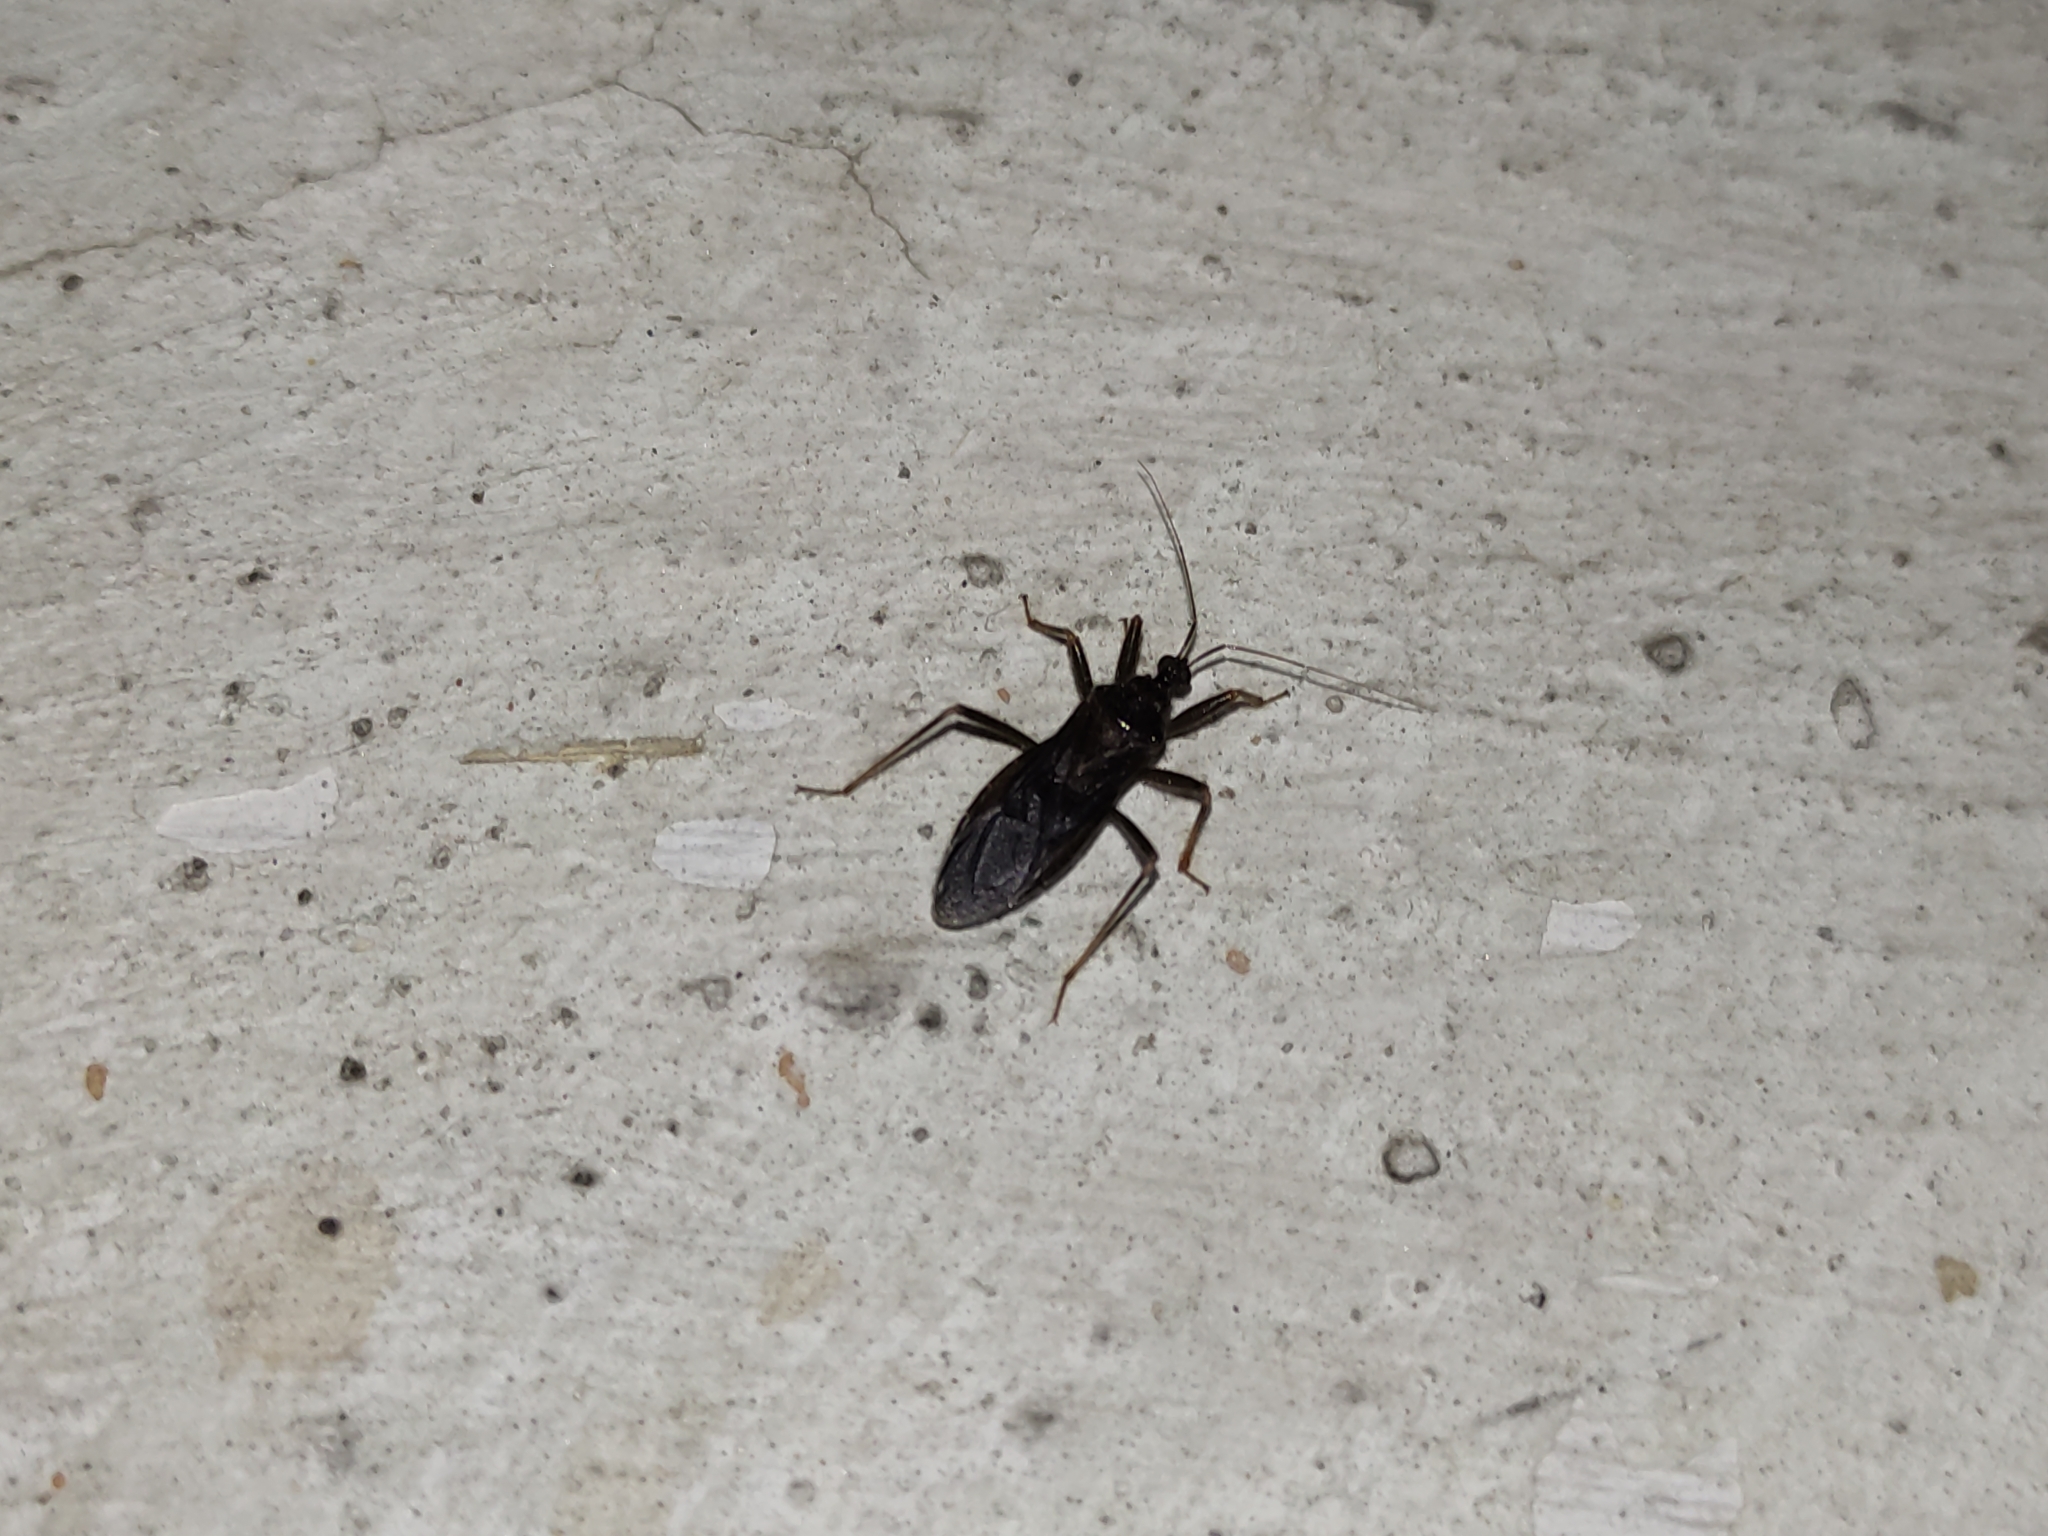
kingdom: Animalia
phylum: Arthropoda
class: Insecta
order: Hemiptera
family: Reduviidae
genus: Reduvius
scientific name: Reduvius personatus
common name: Masked hunter
